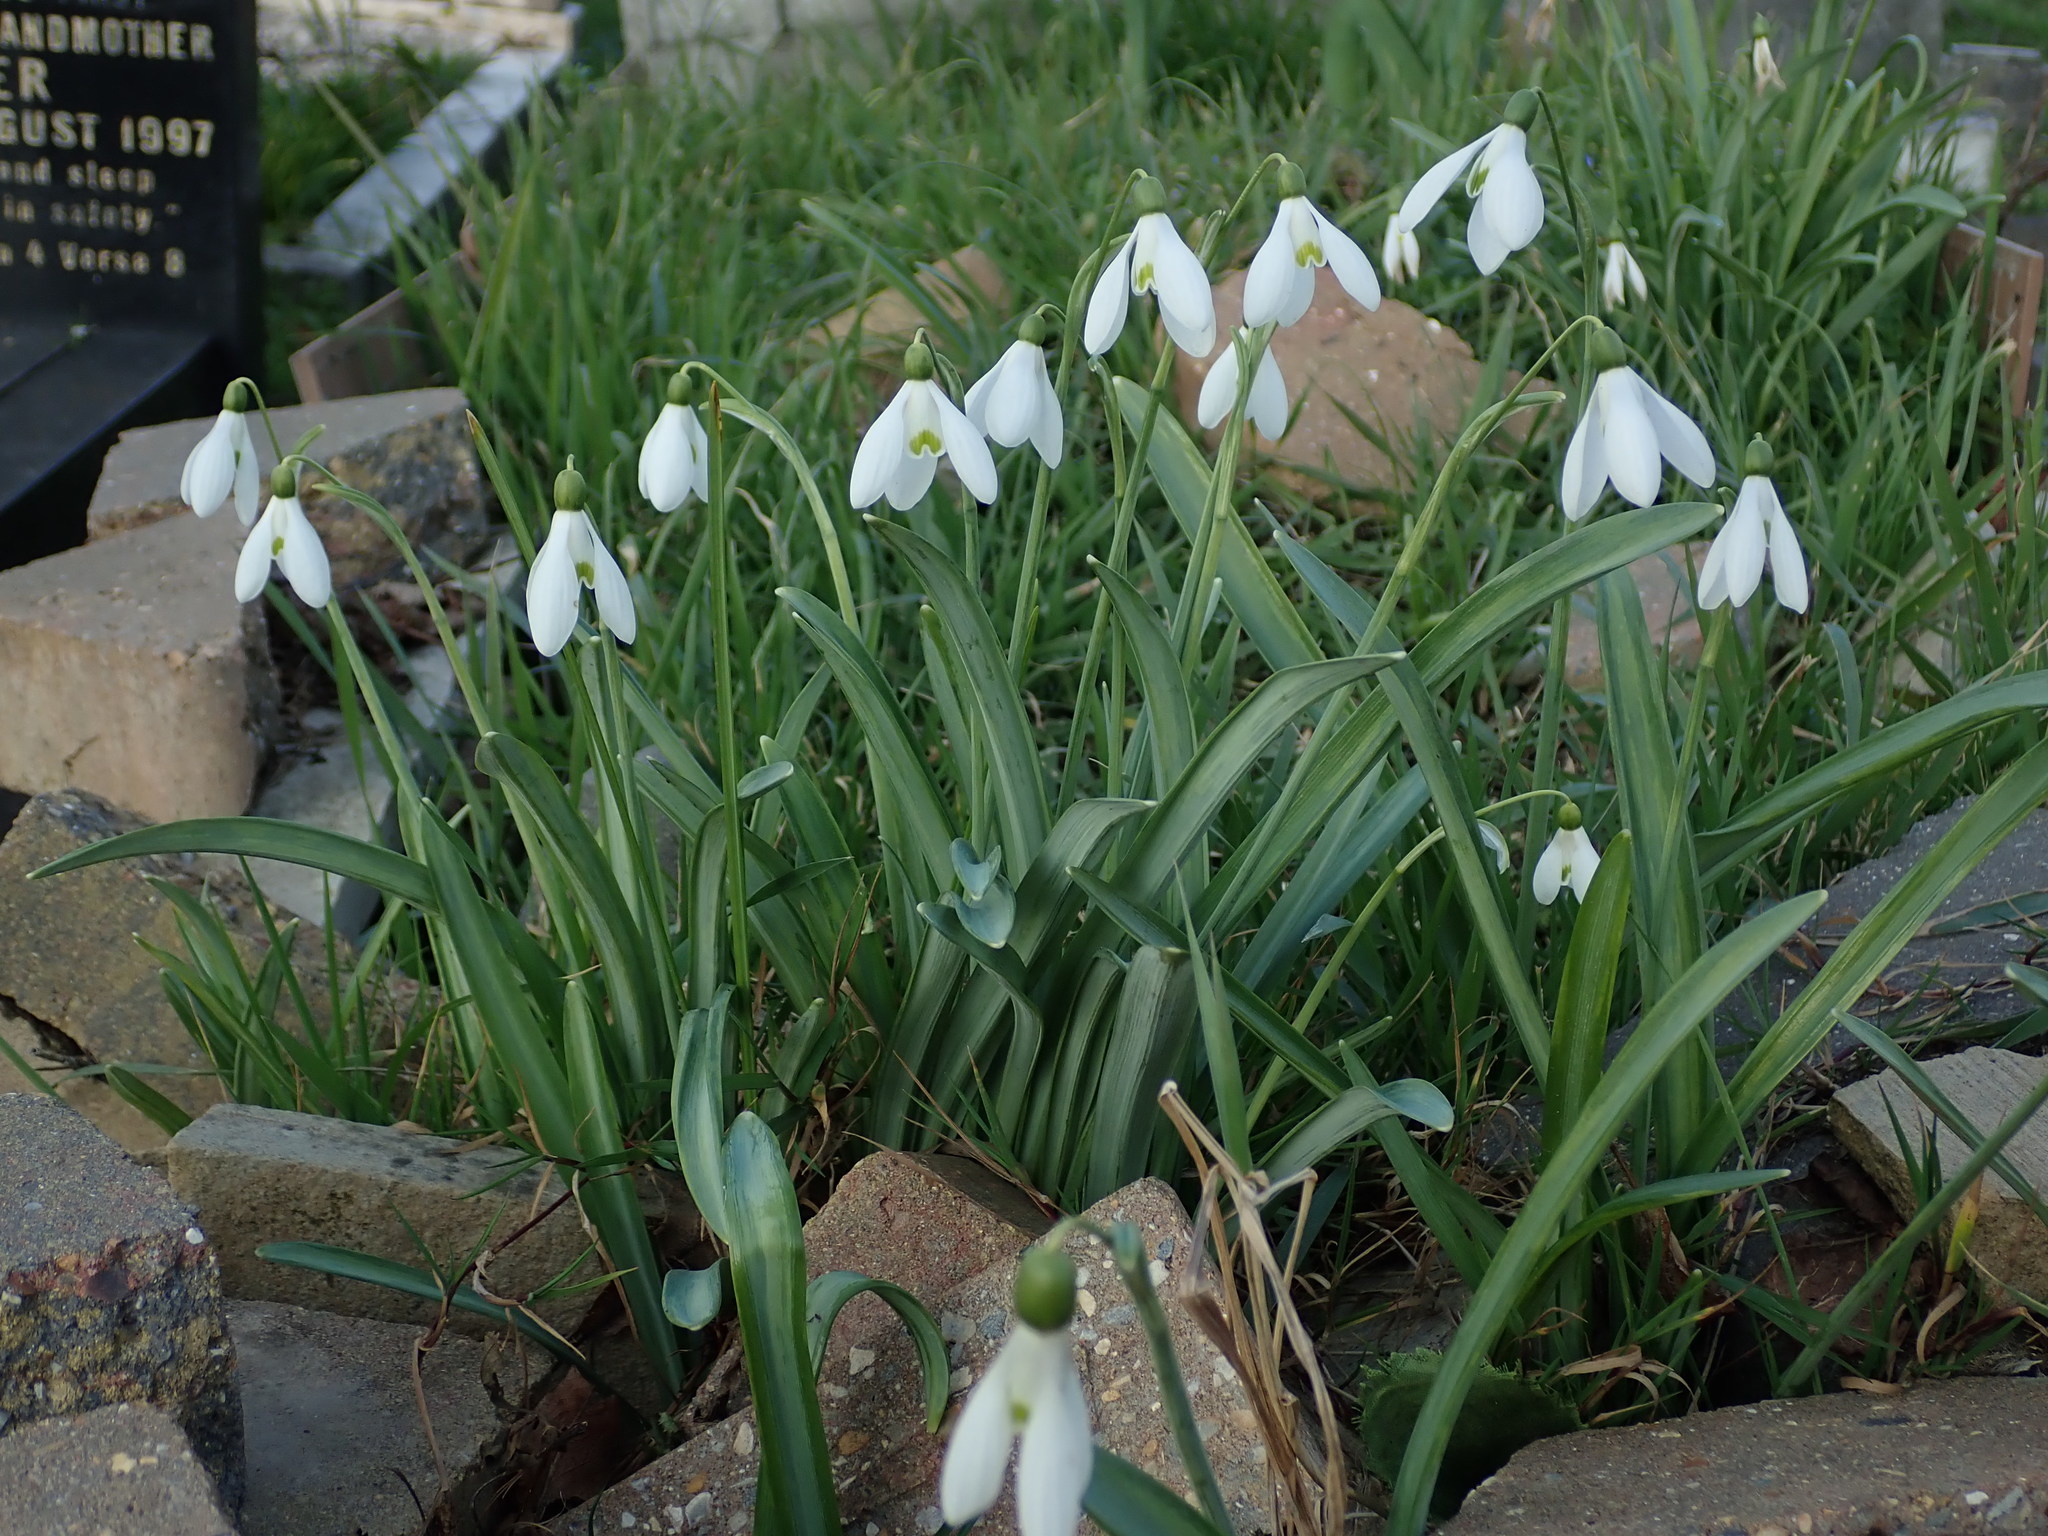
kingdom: Plantae
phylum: Tracheophyta
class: Liliopsida
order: Asparagales
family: Amaryllidaceae
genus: Galanthus
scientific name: Galanthus
